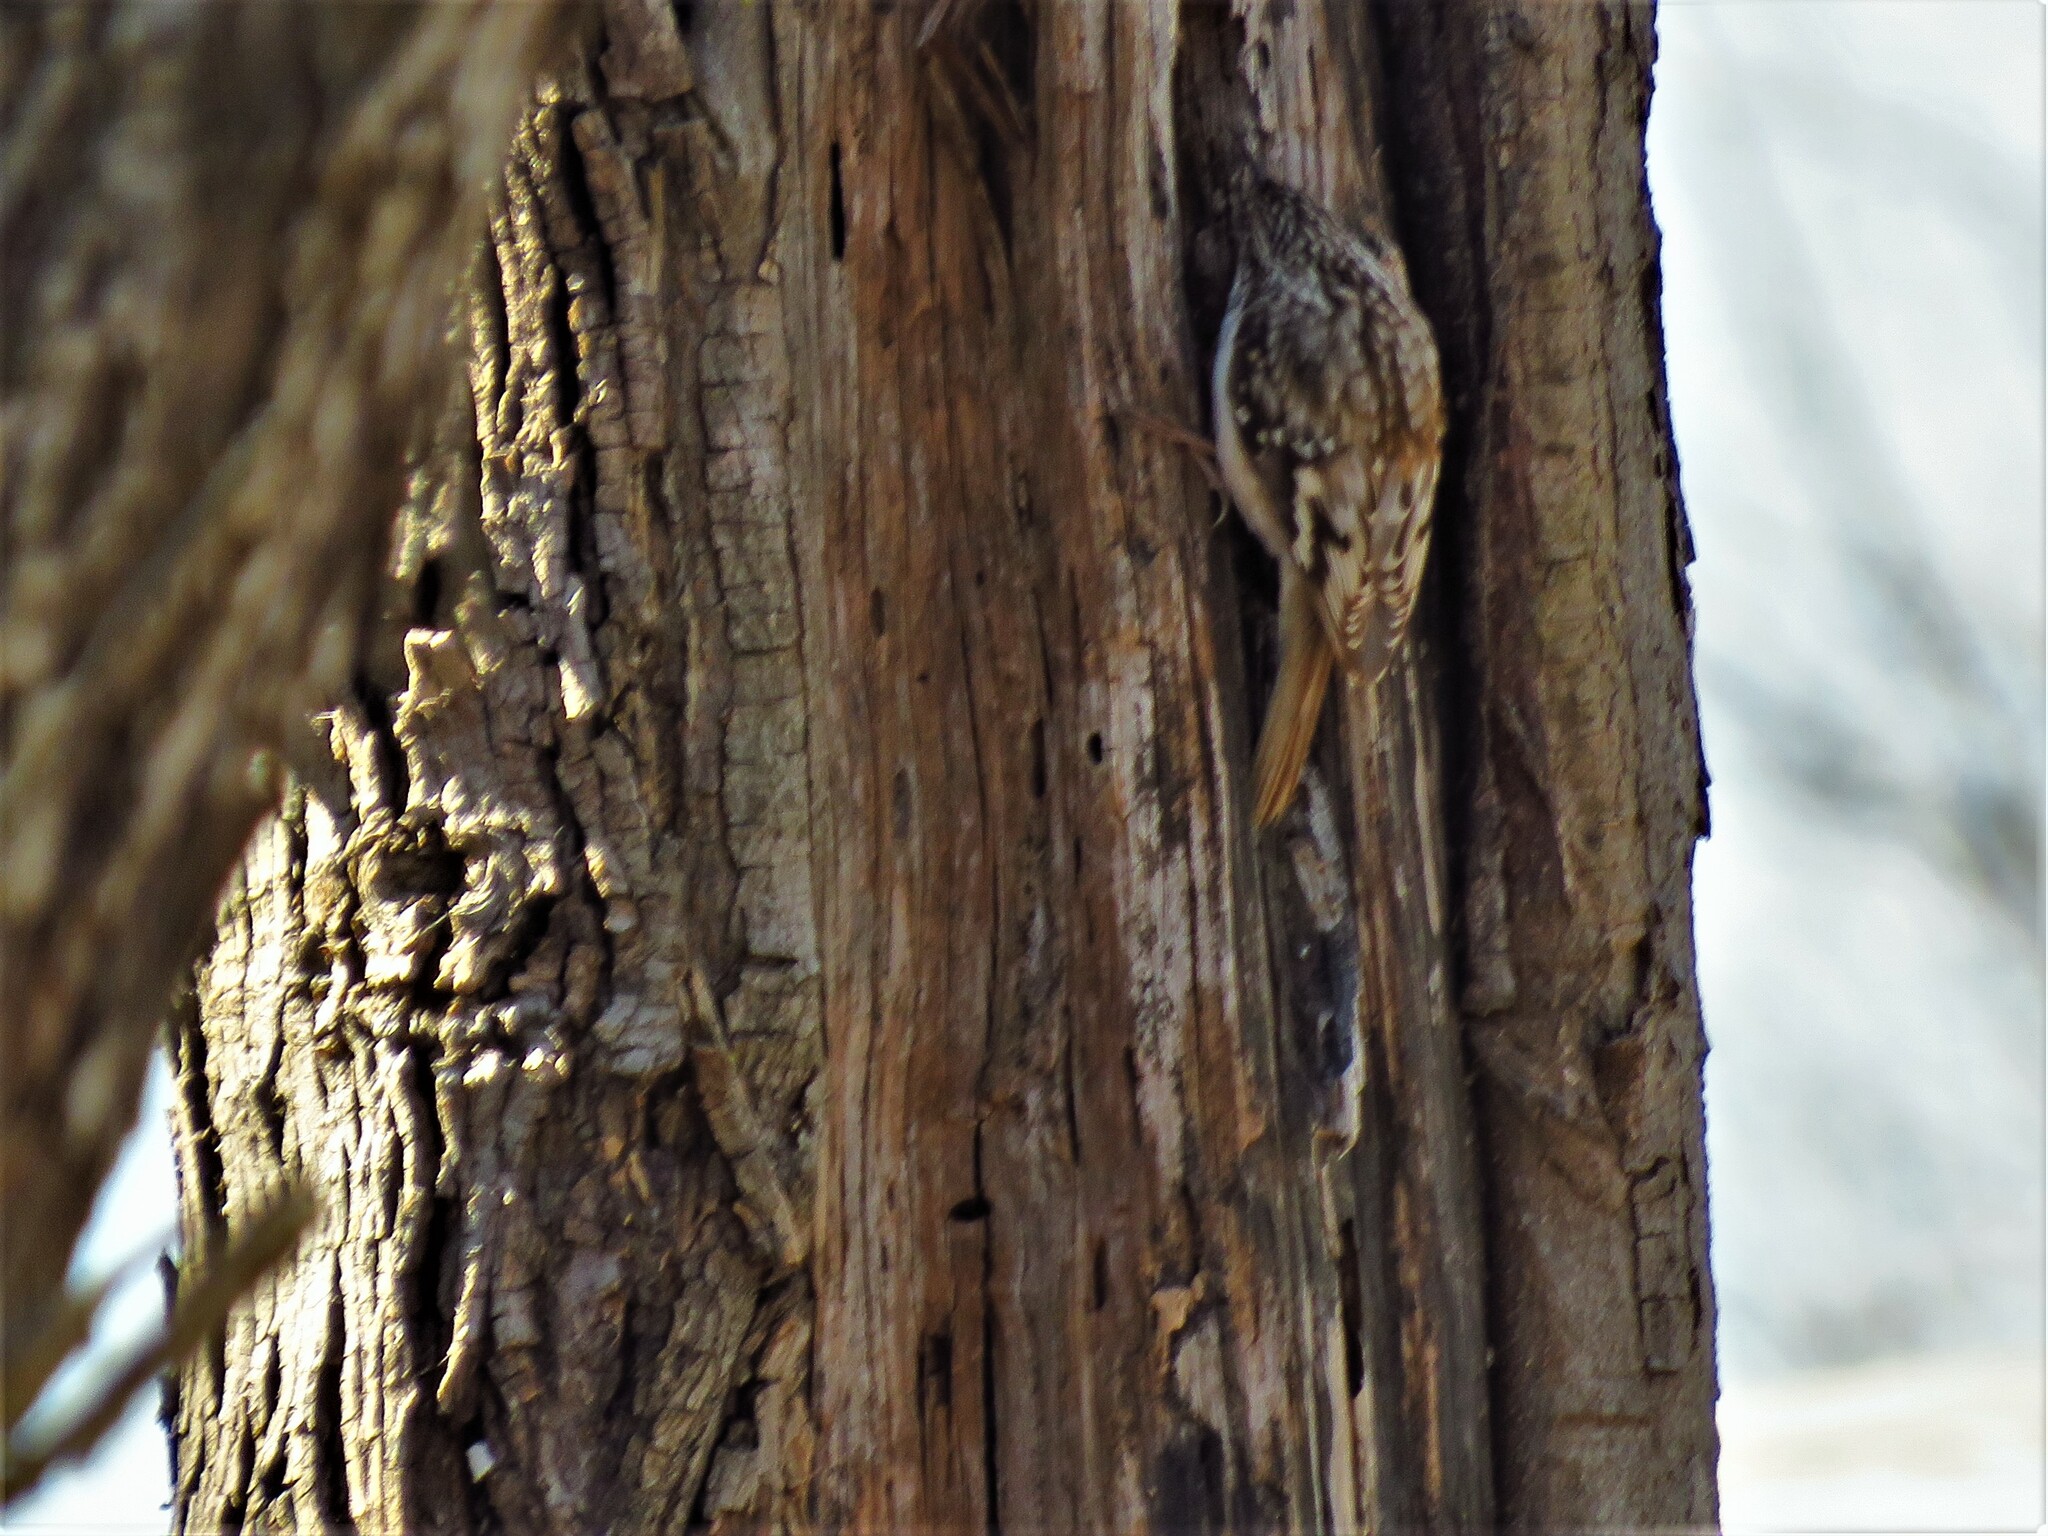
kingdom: Animalia
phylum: Chordata
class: Aves
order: Passeriformes
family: Certhiidae
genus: Certhia
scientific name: Certhia americana
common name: Brown creeper
